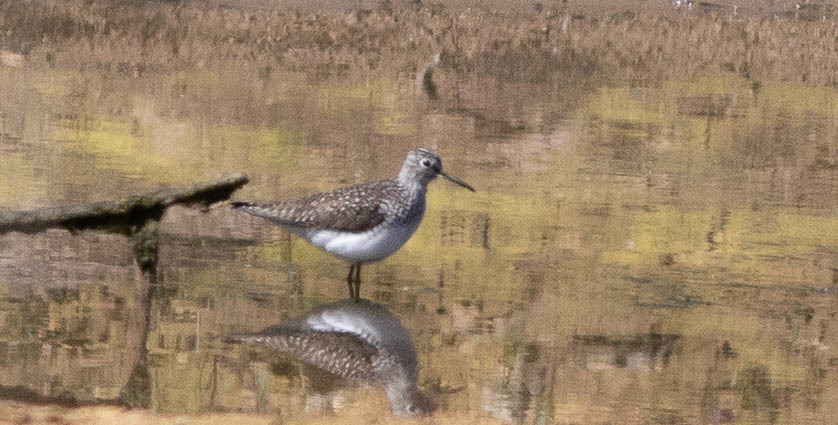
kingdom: Animalia
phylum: Chordata
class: Aves
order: Charadriiformes
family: Scolopacidae
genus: Tringa
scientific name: Tringa solitaria
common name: Solitary sandpiper
